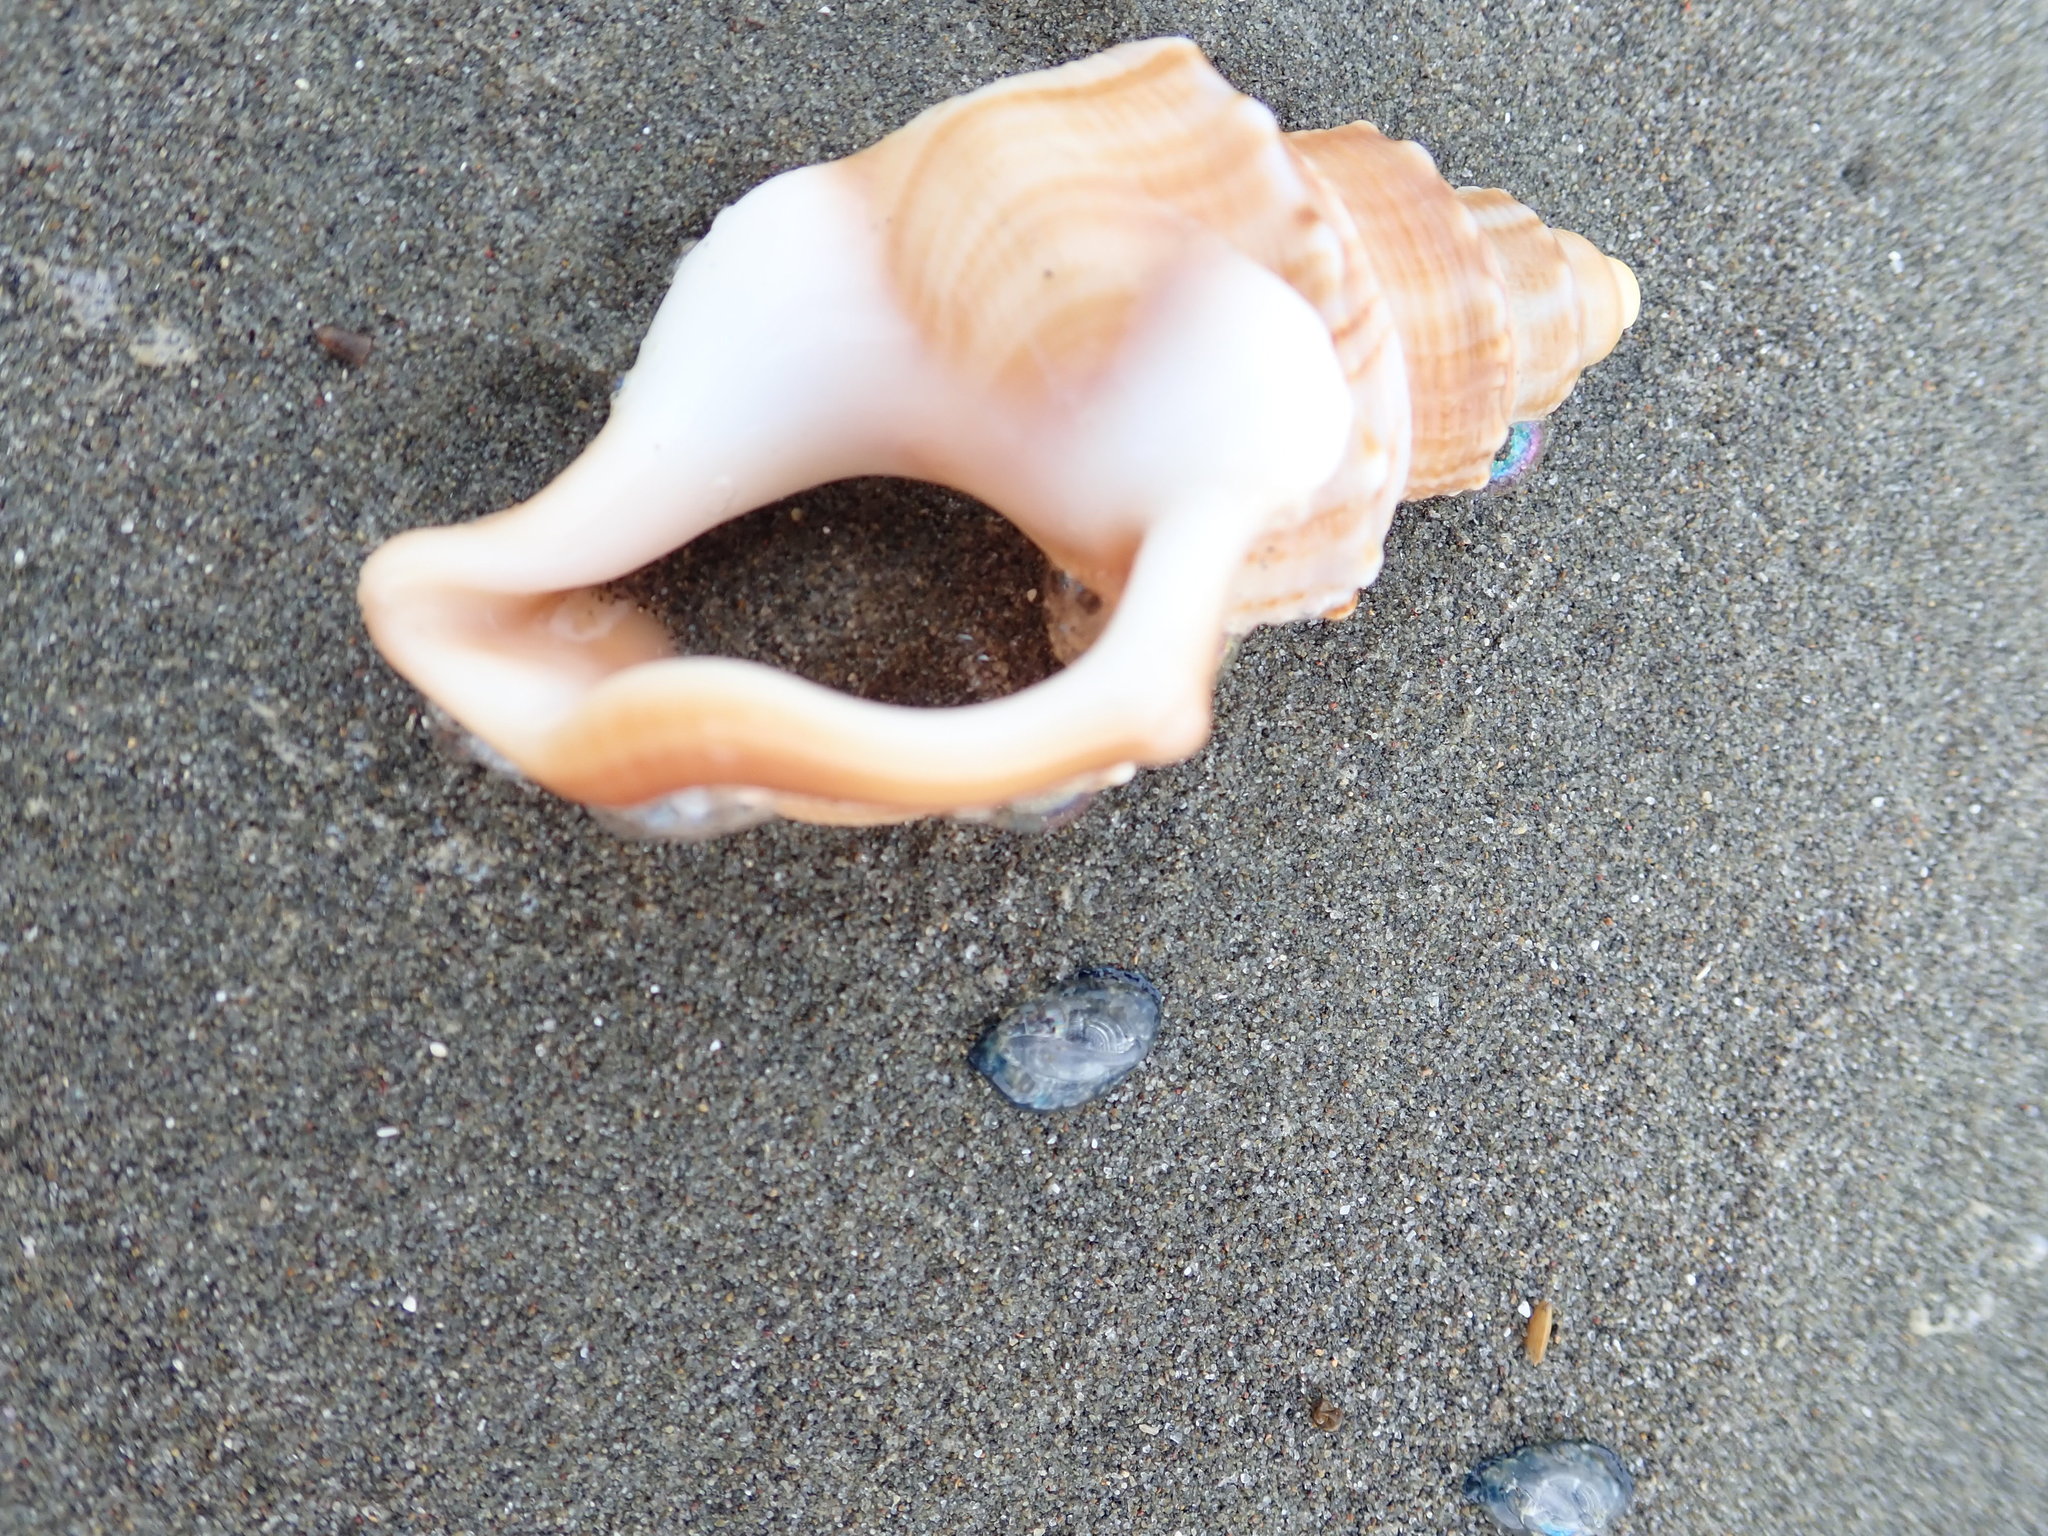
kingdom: Animalia
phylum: Mollusca
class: Gastropoda
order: Littorinimorpha
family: Struthiolariidae
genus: Struthiolaria
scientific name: Struthiolaria papulosa
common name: Large ostrich foot
